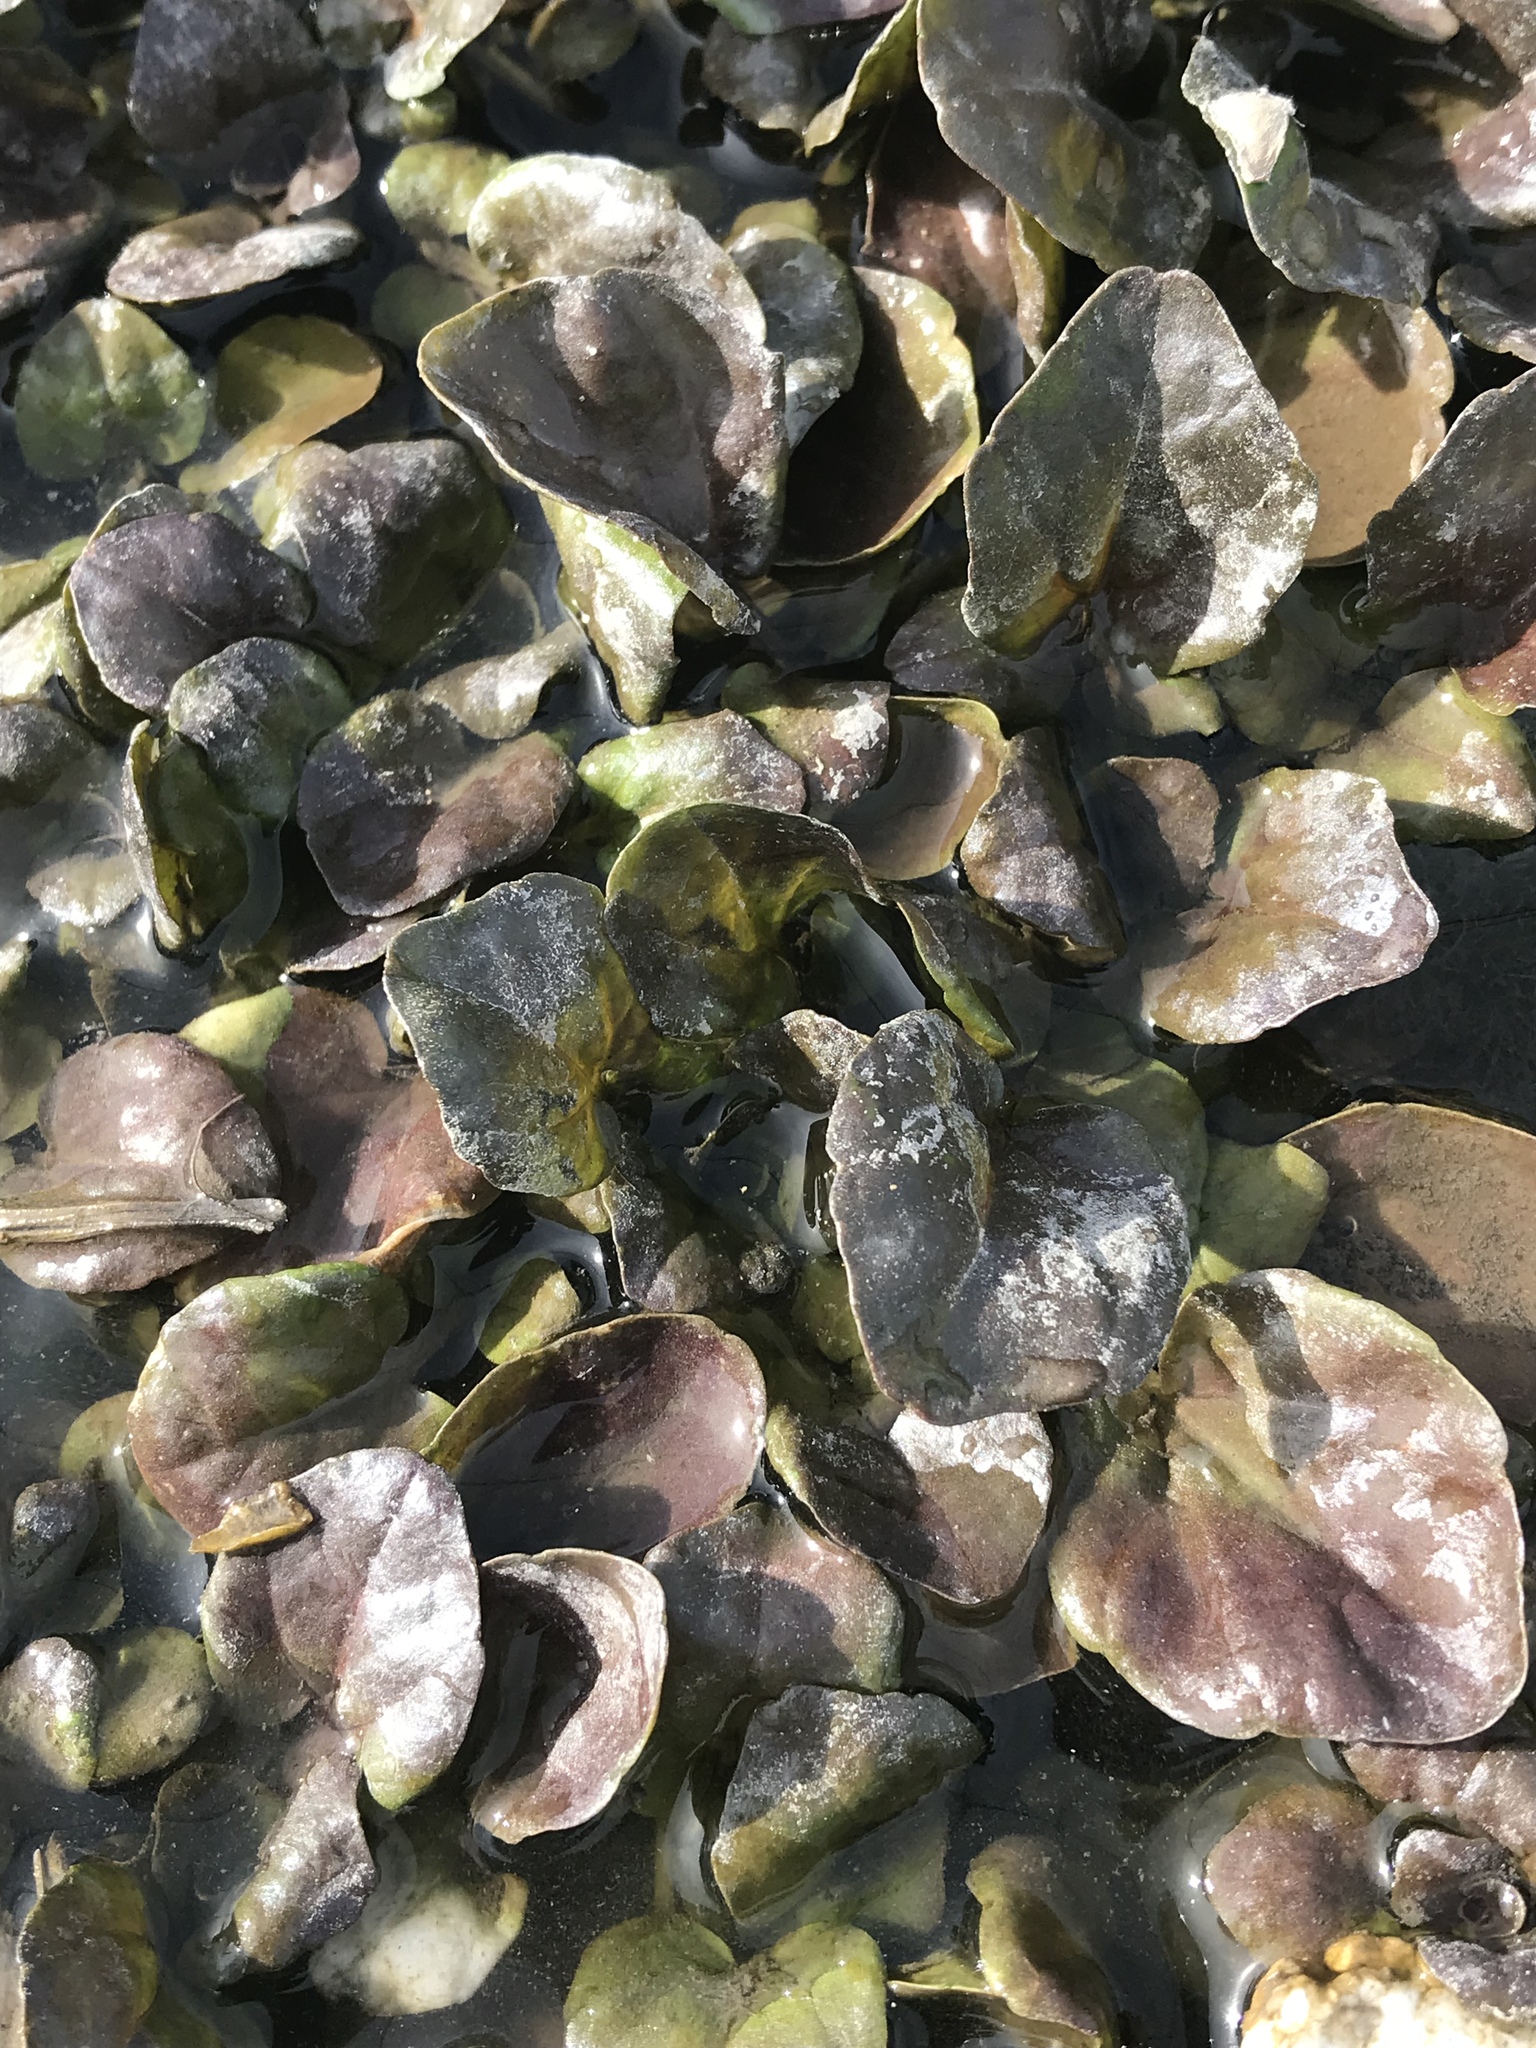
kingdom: Plantae
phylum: Tracheophyta
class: Magnoliopsida
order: Brassicales
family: Brassicaceae
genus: Nasturtium
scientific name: Nasturtium officinale
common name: Watercress
